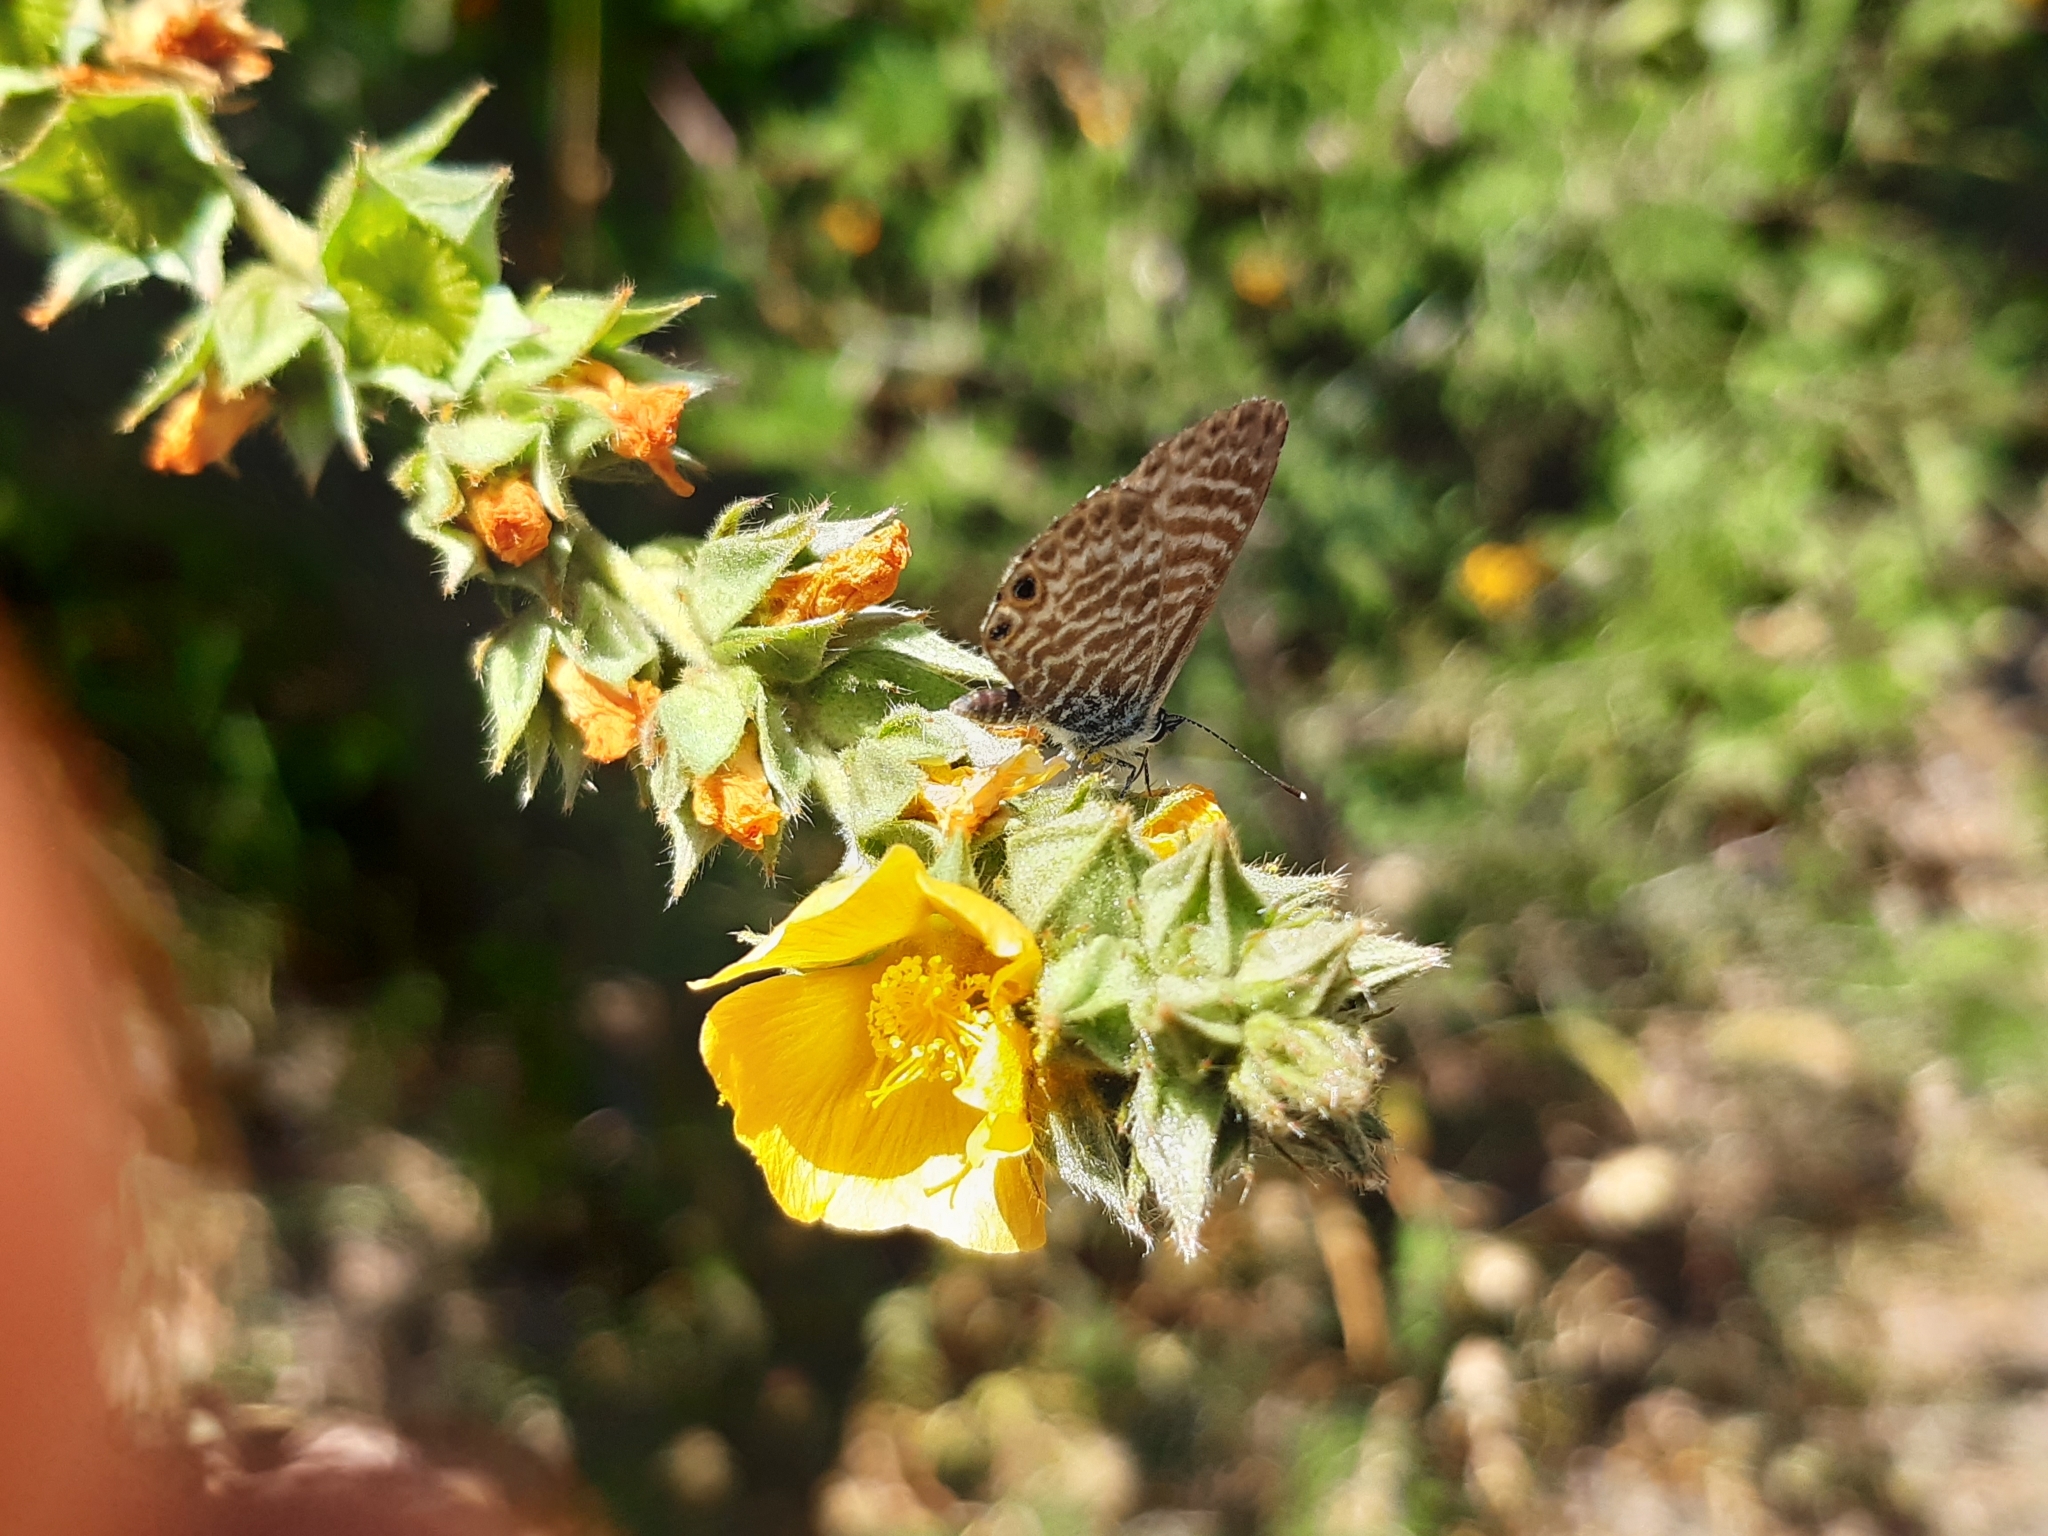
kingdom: Animalia
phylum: Arthropoda
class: Insecta
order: Lepidoptera
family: Lycaenidae
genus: Leptotes
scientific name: Leptotes marina
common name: Marine blue
